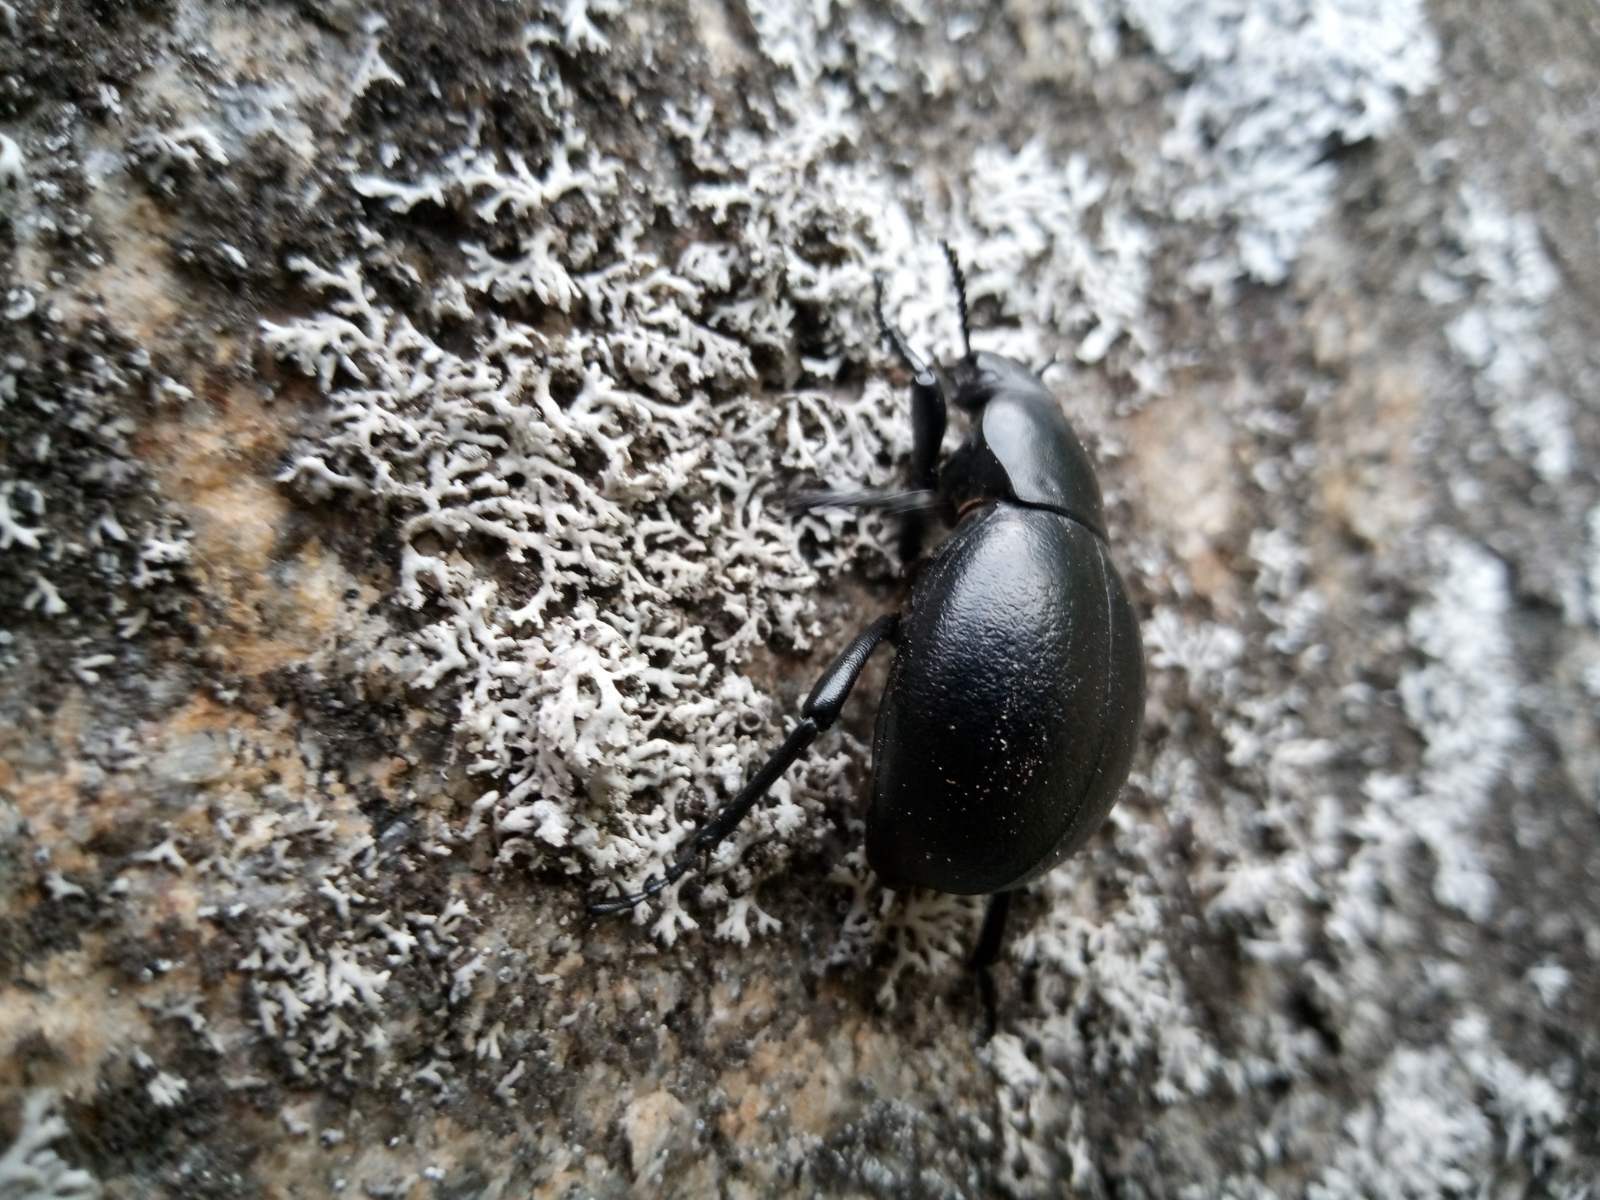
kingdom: Animalia
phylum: Arthropoda
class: Insecta
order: Coleoptera
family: Tenebrionidae
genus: Gnaptor
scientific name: Gnaptor spinimanus
